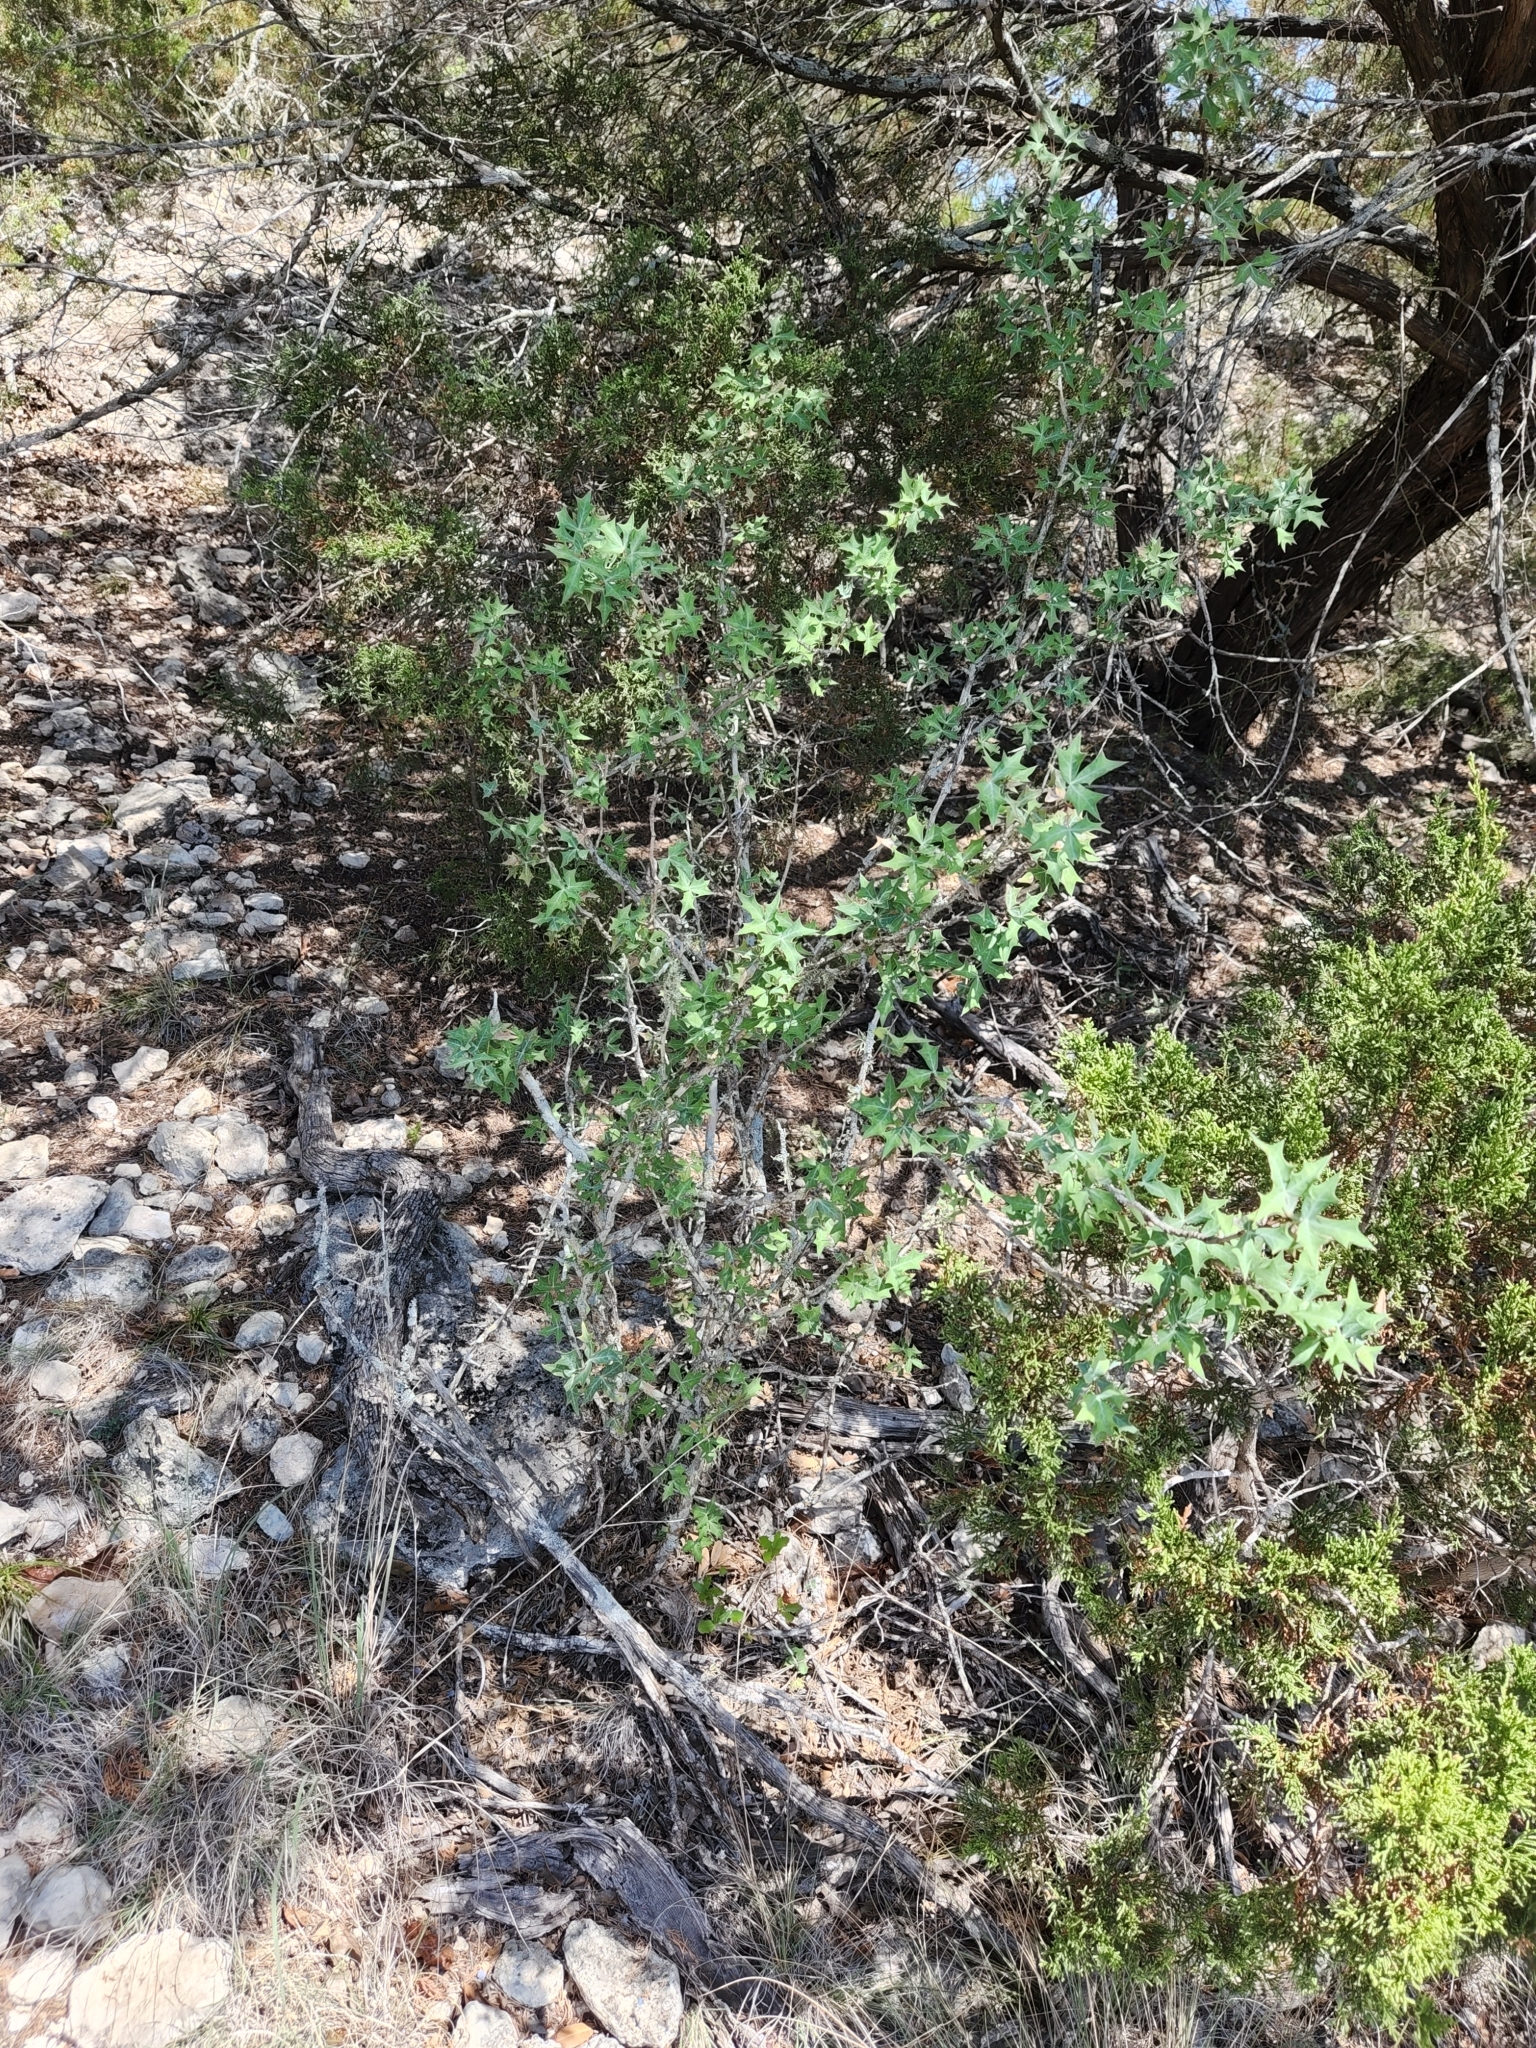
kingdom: Plantae
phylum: Tracheophyta
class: Magnoliopsida
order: Ranunculales
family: Berberidaceae
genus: Alloberberis
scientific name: Alloberberis trifoliolata
